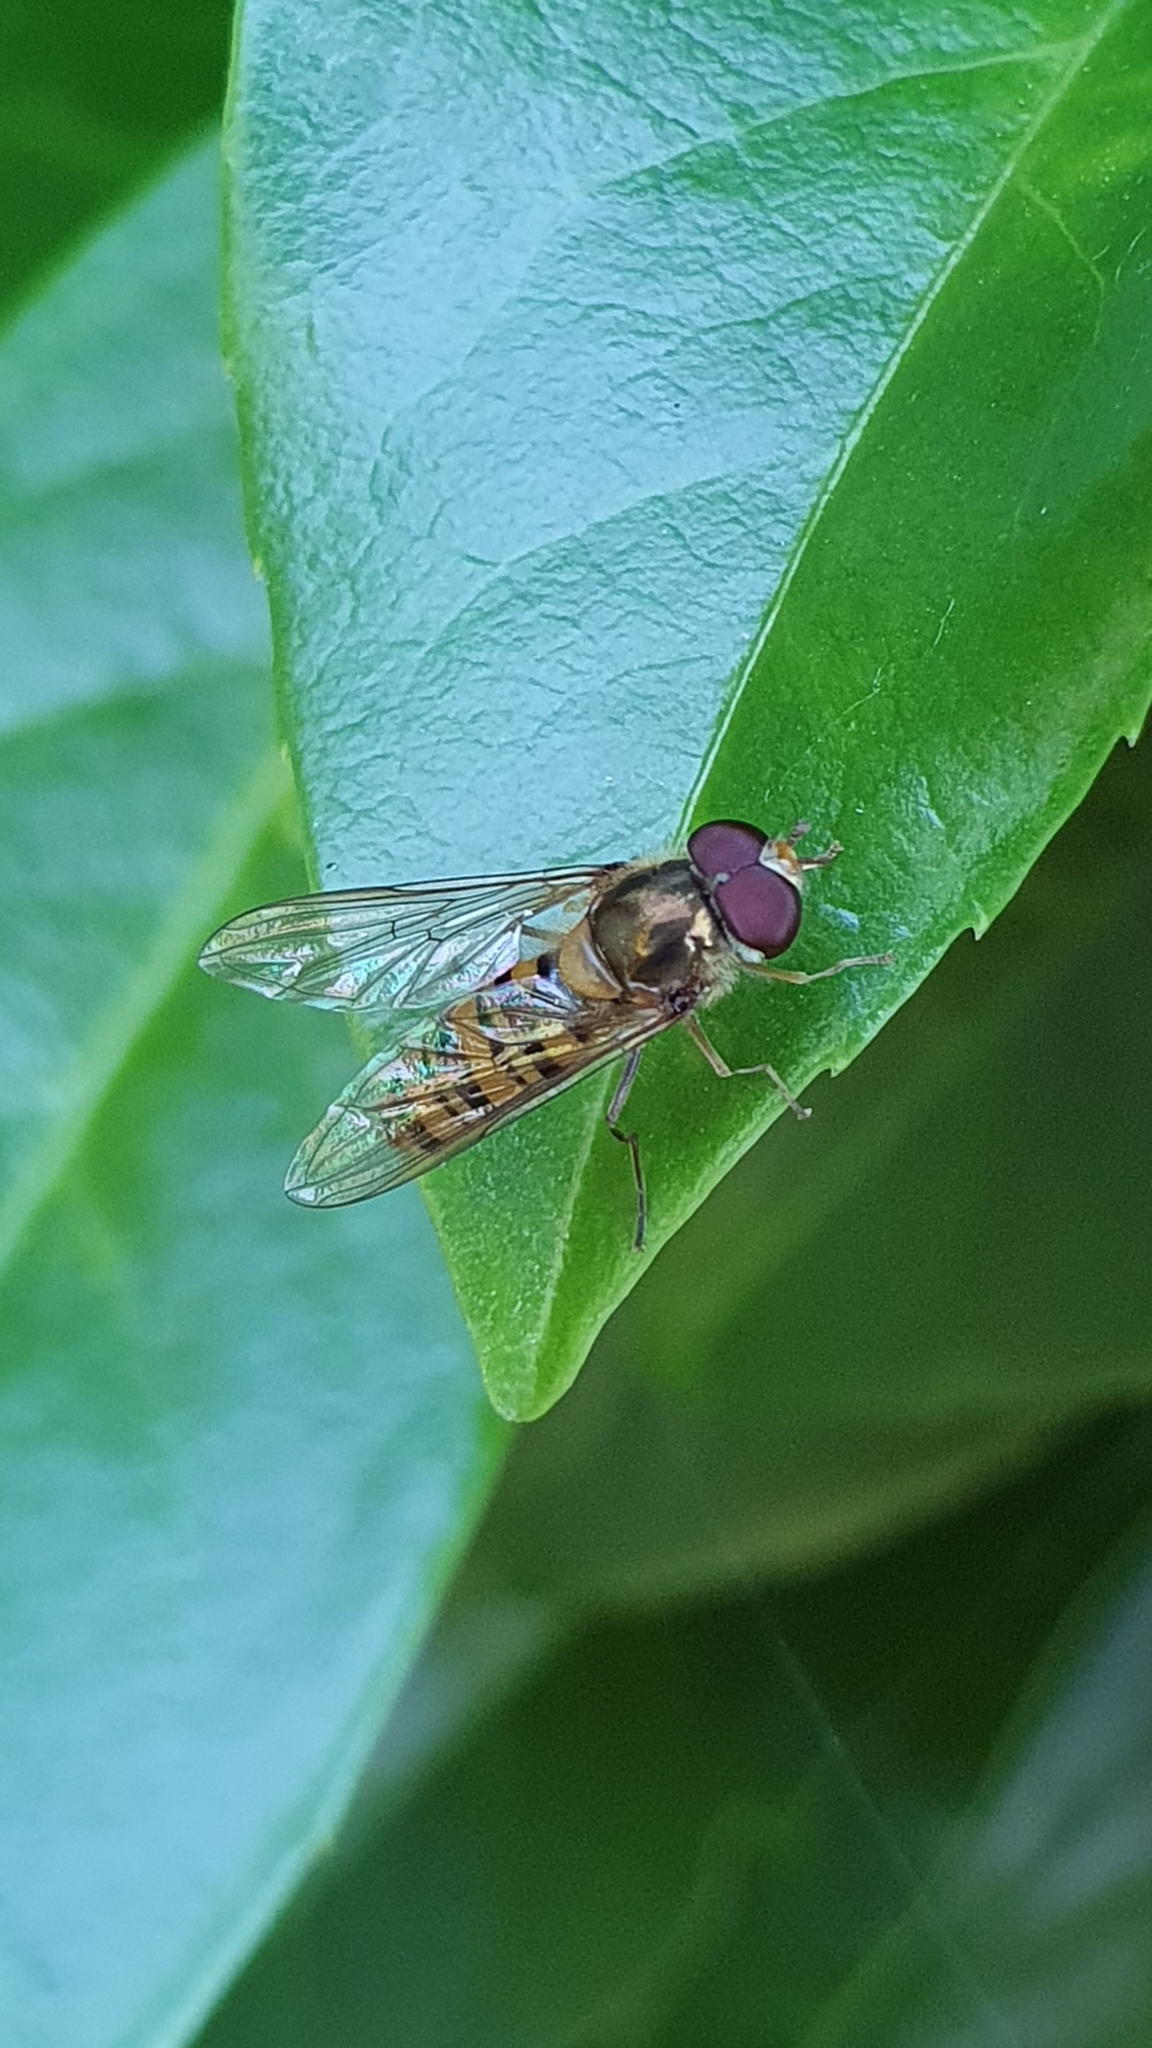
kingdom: Animalia
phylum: Arthropoda
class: Insecta
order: Diptera
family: Syrphidae
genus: Episyrphus
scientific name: Episyrphus balteatus
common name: Marmalade hoverfly
